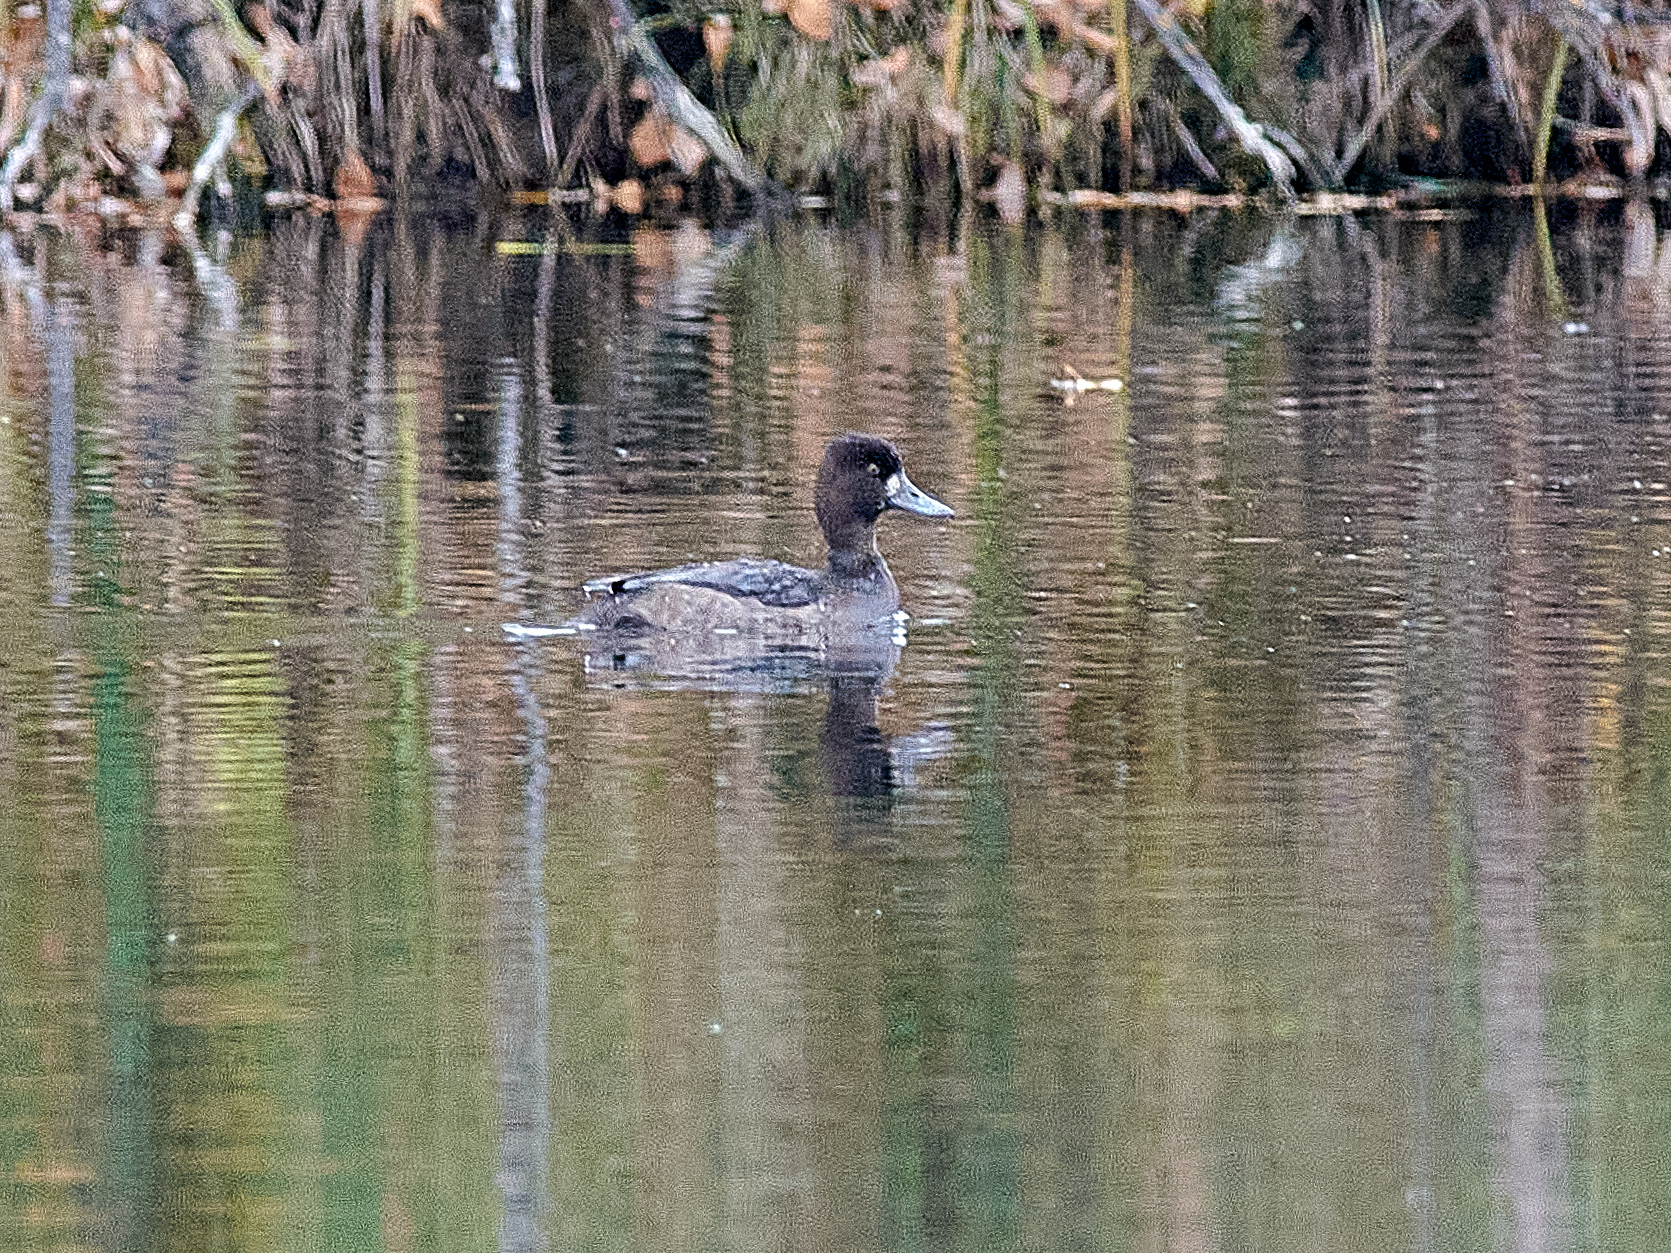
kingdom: Animalia
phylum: Chordata
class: Aves
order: Anseriformes
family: Anatidae
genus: Aythya
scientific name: Aythya fuligula
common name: Tufted duck
